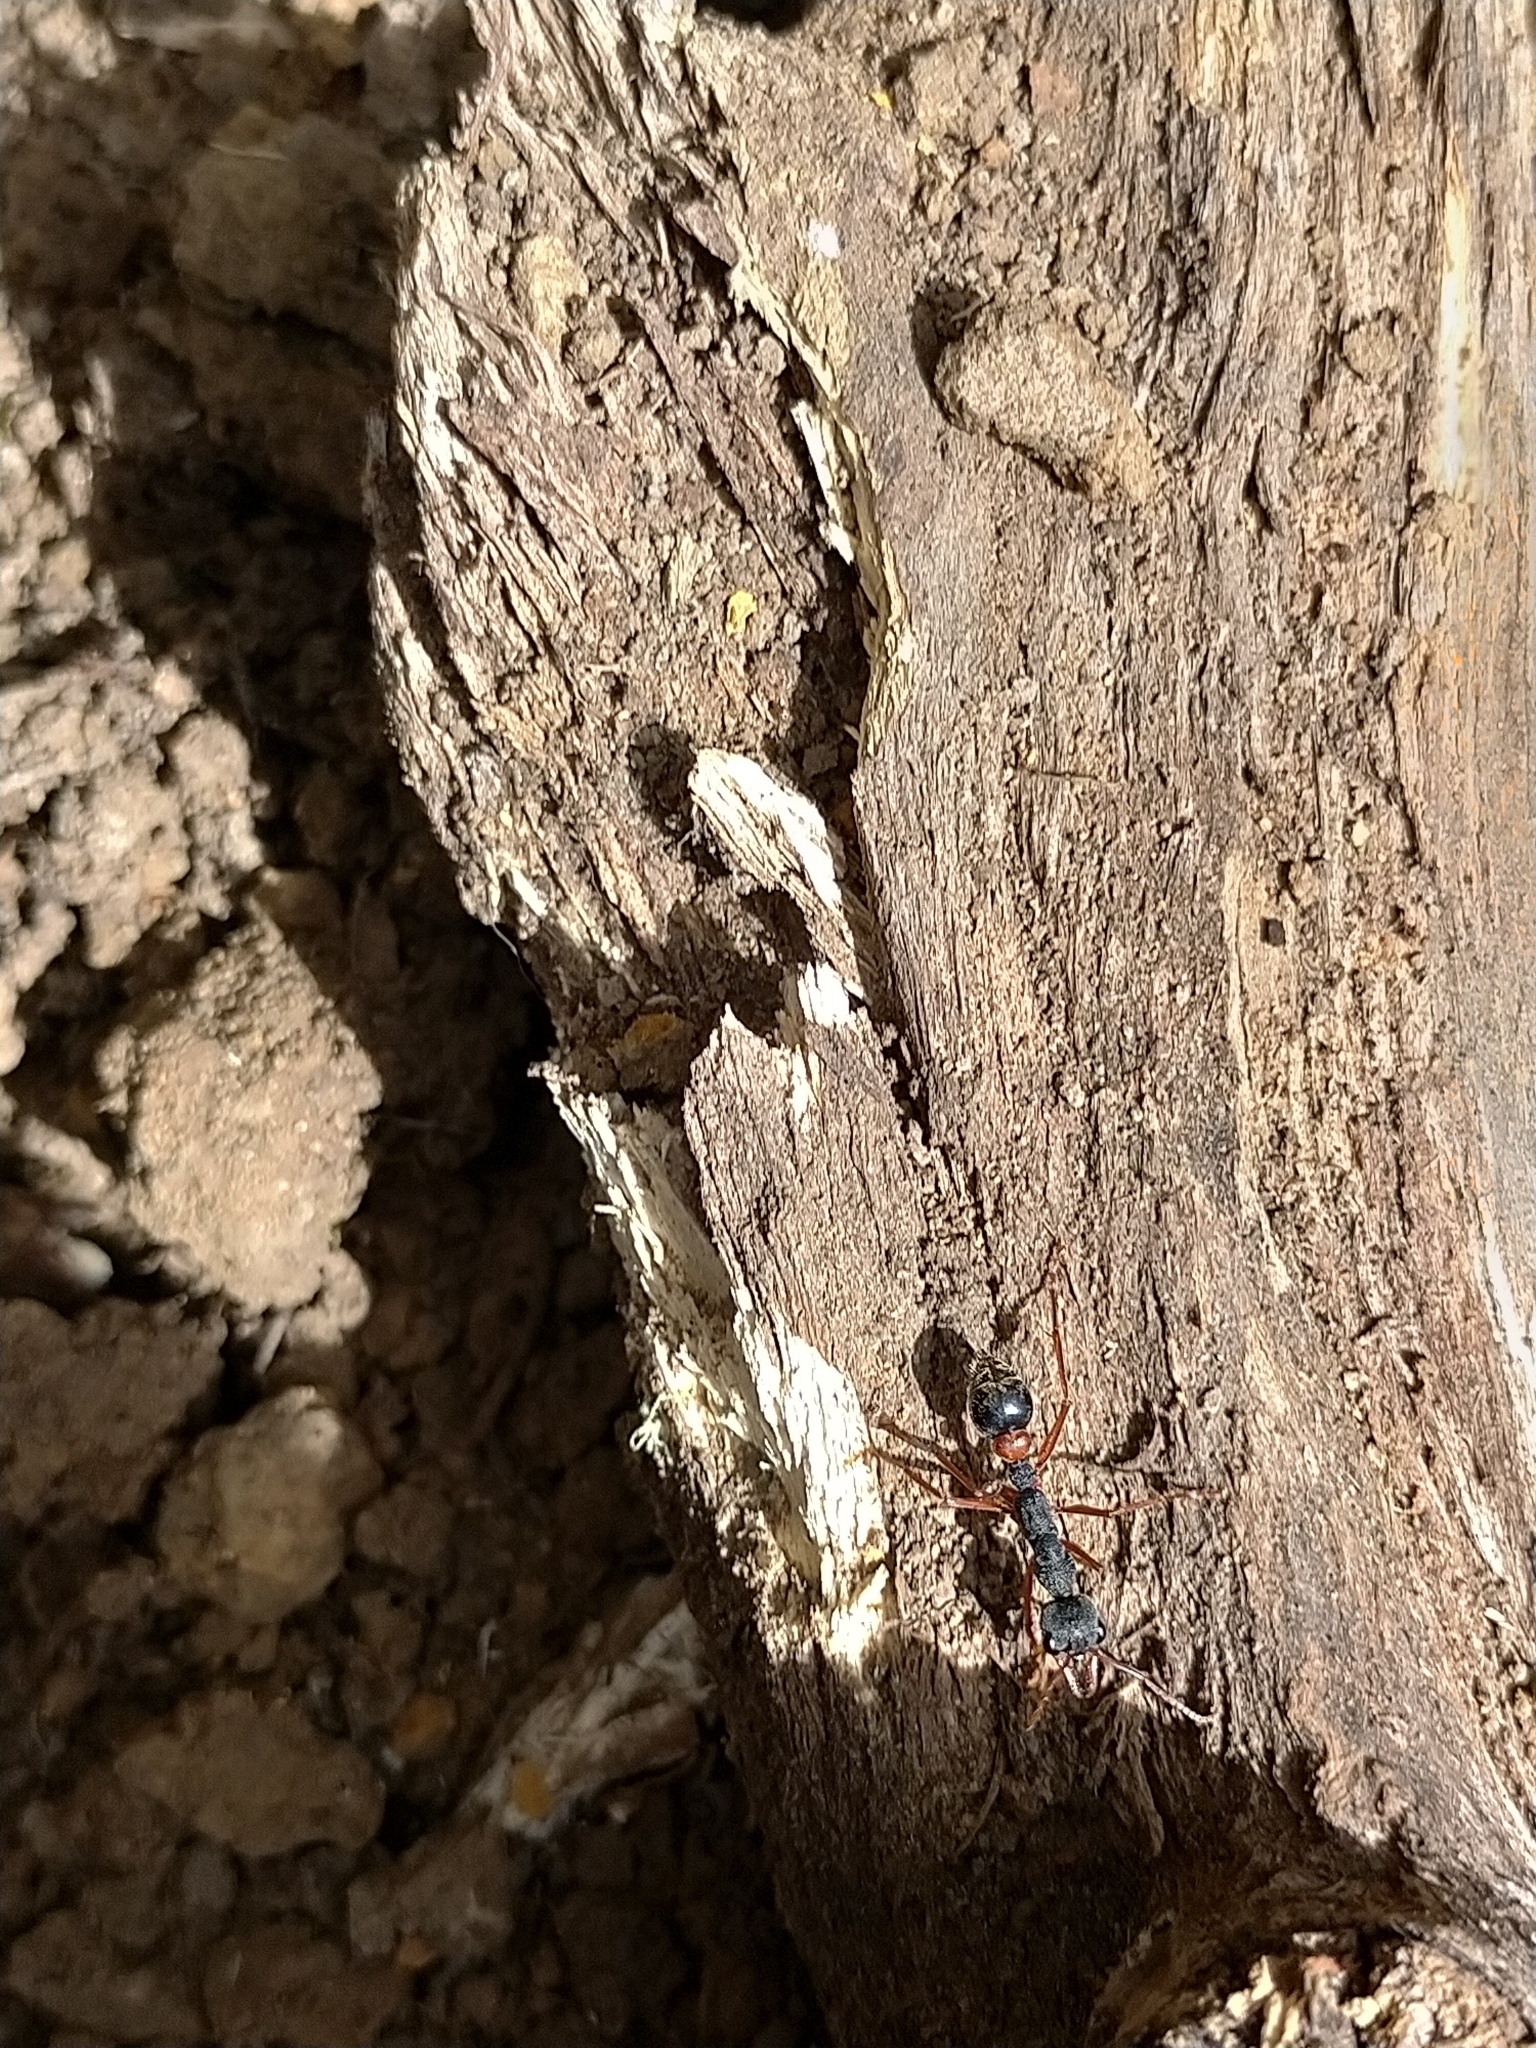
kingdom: Animalia
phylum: Arthropoda
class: Insecta
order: Hymenoptera
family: Formicidae
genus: Myrmecia
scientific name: Myrmecia esuriens
